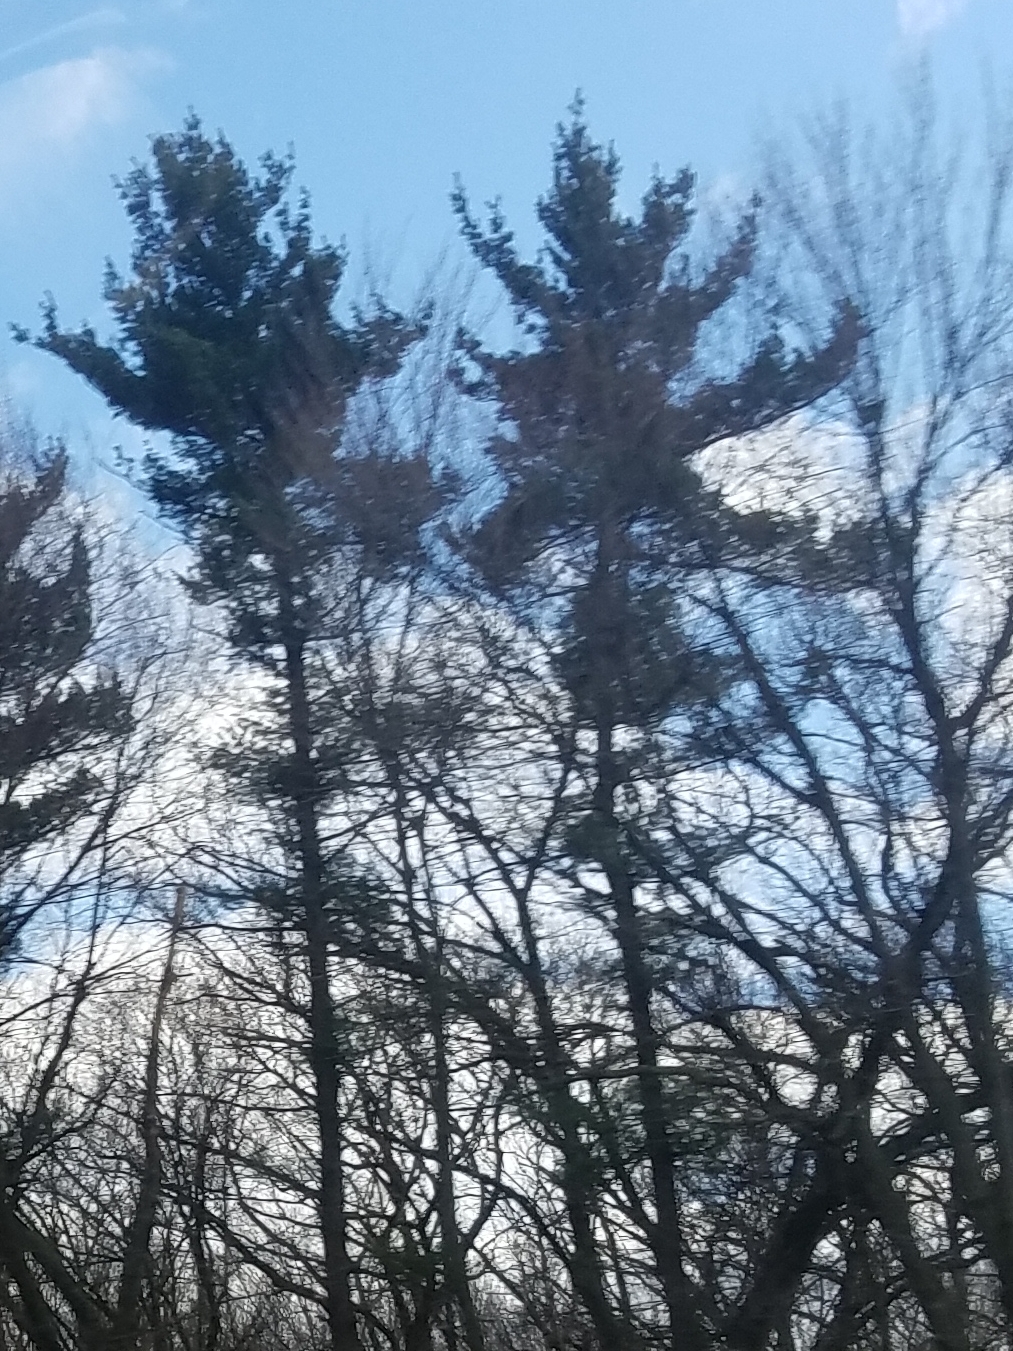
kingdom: Plantae
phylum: Tracheophyta
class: Pinopsida
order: Pinales
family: Pinaceae
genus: Pinus
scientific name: Pinus strobus
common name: Weymouth pine
